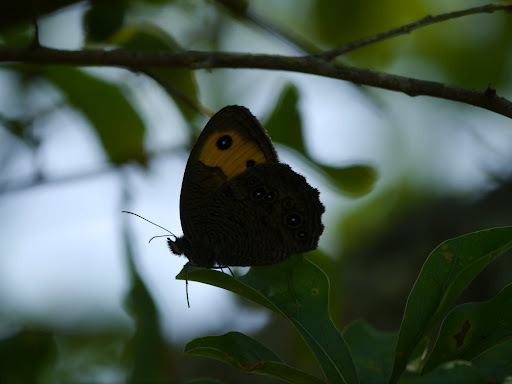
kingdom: Animalia
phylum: Arthropoda
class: Insecta
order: Lepidoptera
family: Nymphalidae
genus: Cercyonis
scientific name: Cercyonis pegala
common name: Common wood-nymph
